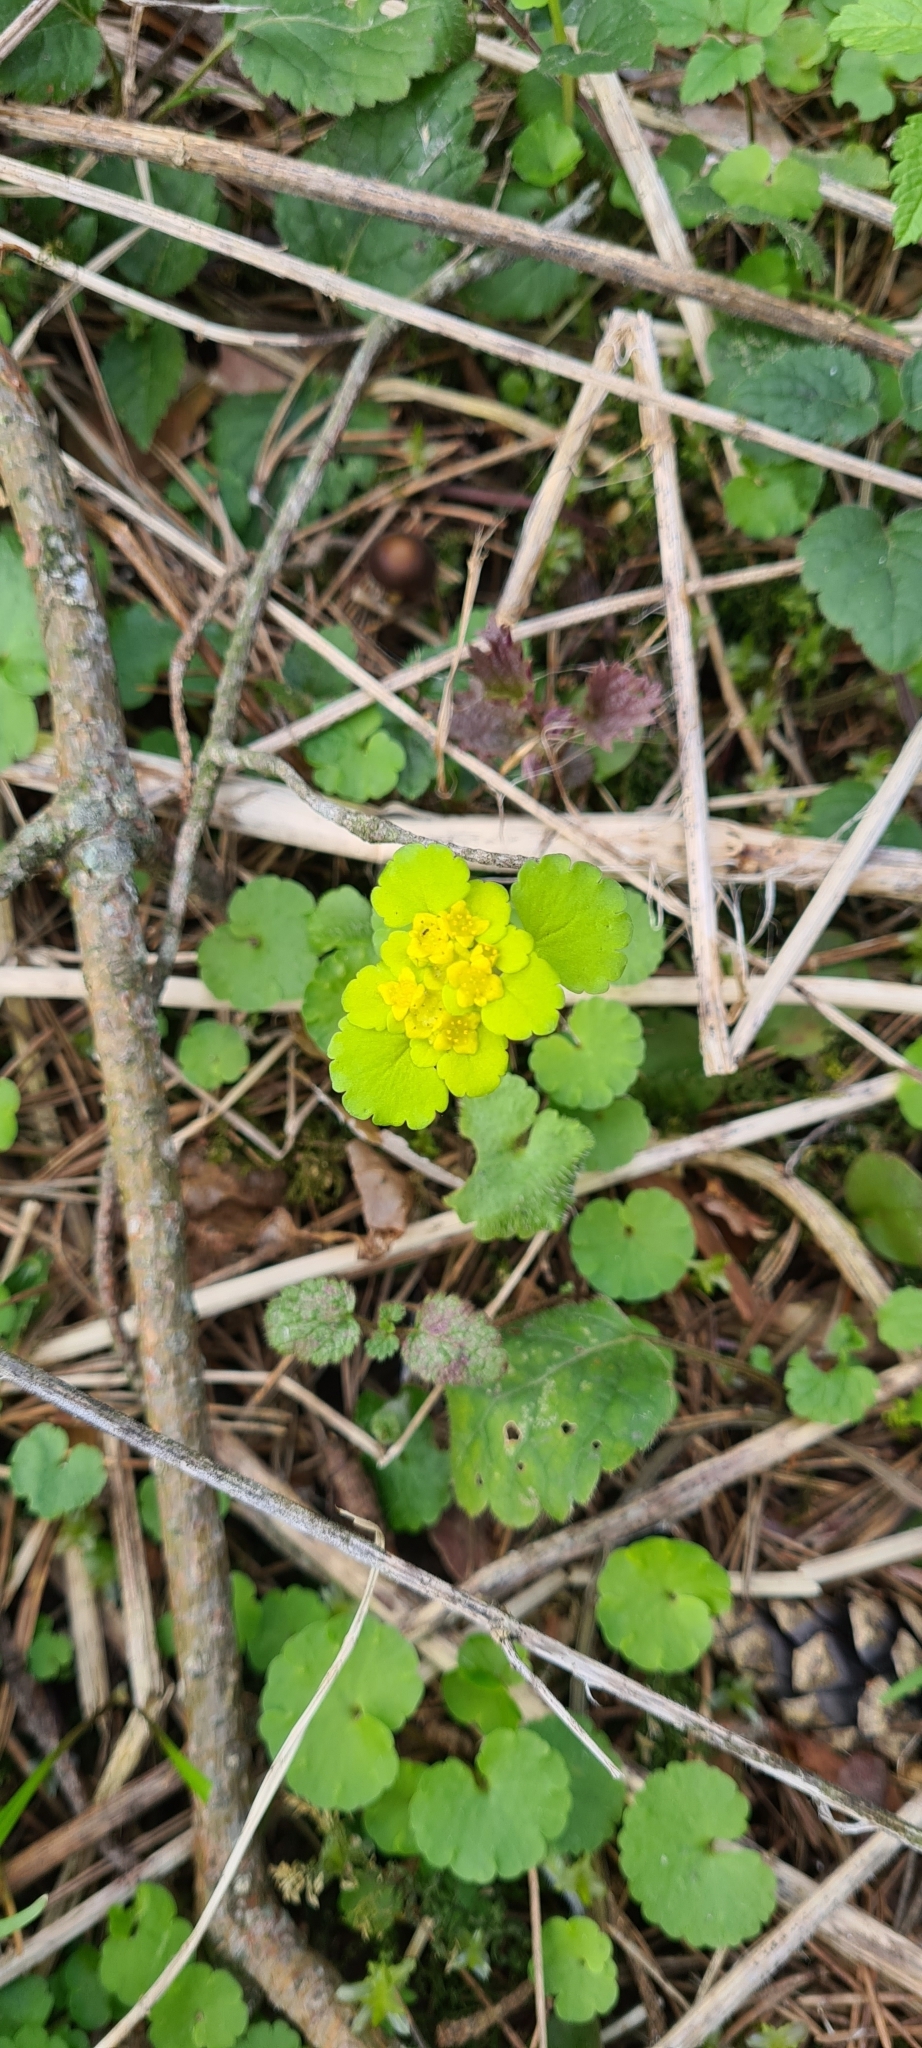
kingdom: Plantae
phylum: Tracheophyta
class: Magnoliopsida
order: Saxifragales
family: Saxifragaceae
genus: Chrysosplenium
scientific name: Chrysosplenium alternifolium
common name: Alternate-leaved golden-saxifrage
